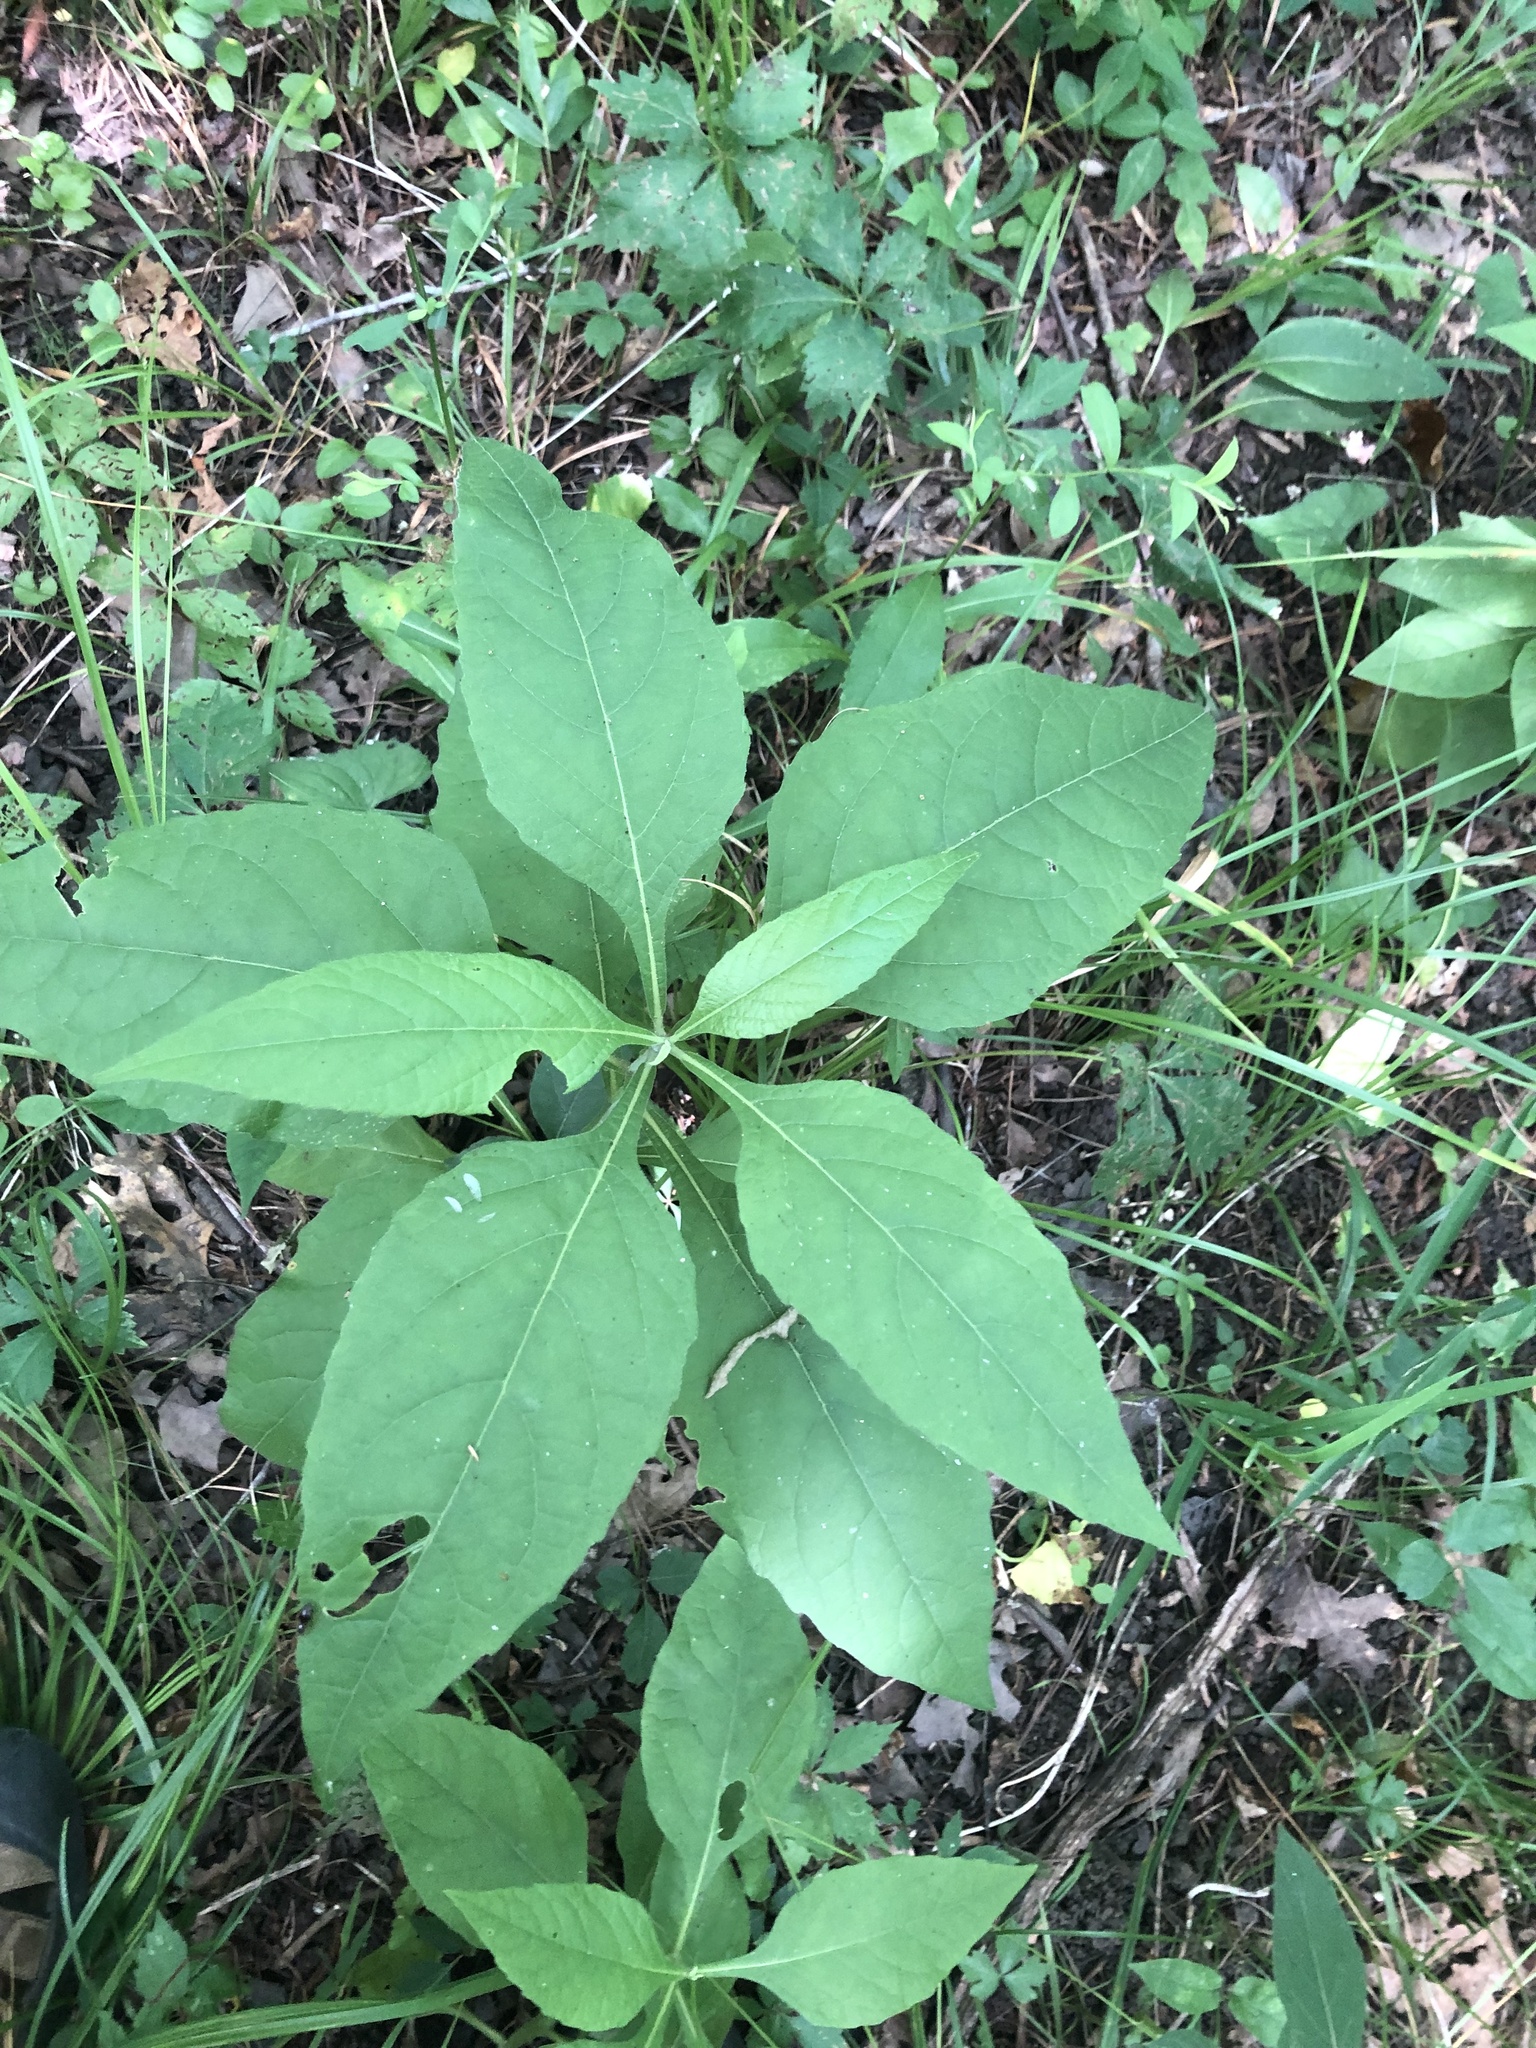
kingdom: Plantae
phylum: Tracheophyta
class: Magnoliopsida
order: Asterales
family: Asteraceae
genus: Verbesina
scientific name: Verbesina virginica
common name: Frostweed
